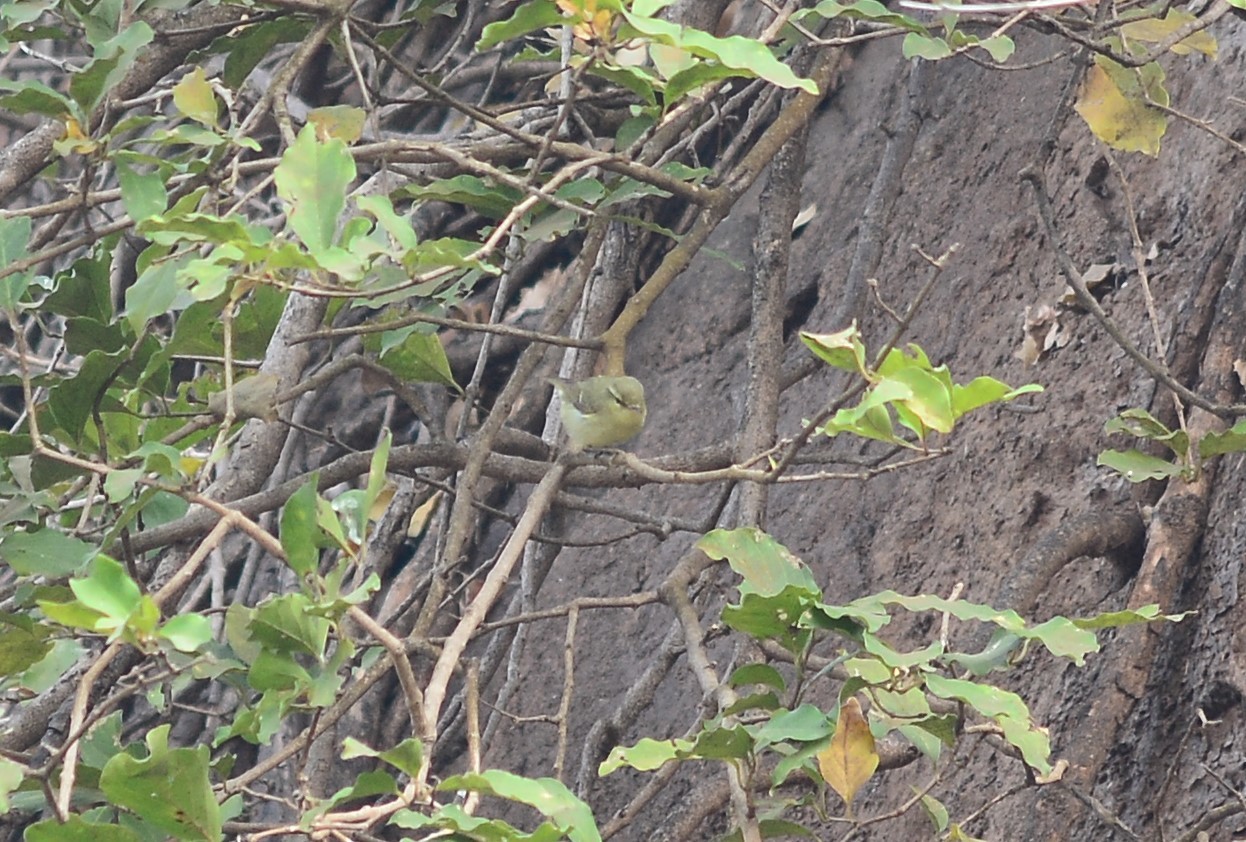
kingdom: Animalia
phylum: Chordata
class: Aves
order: Passeriformes
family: Phylloscopidae
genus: Phylloscopus
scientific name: Phylloscopus affinis
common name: Tickell's leaf warbler
